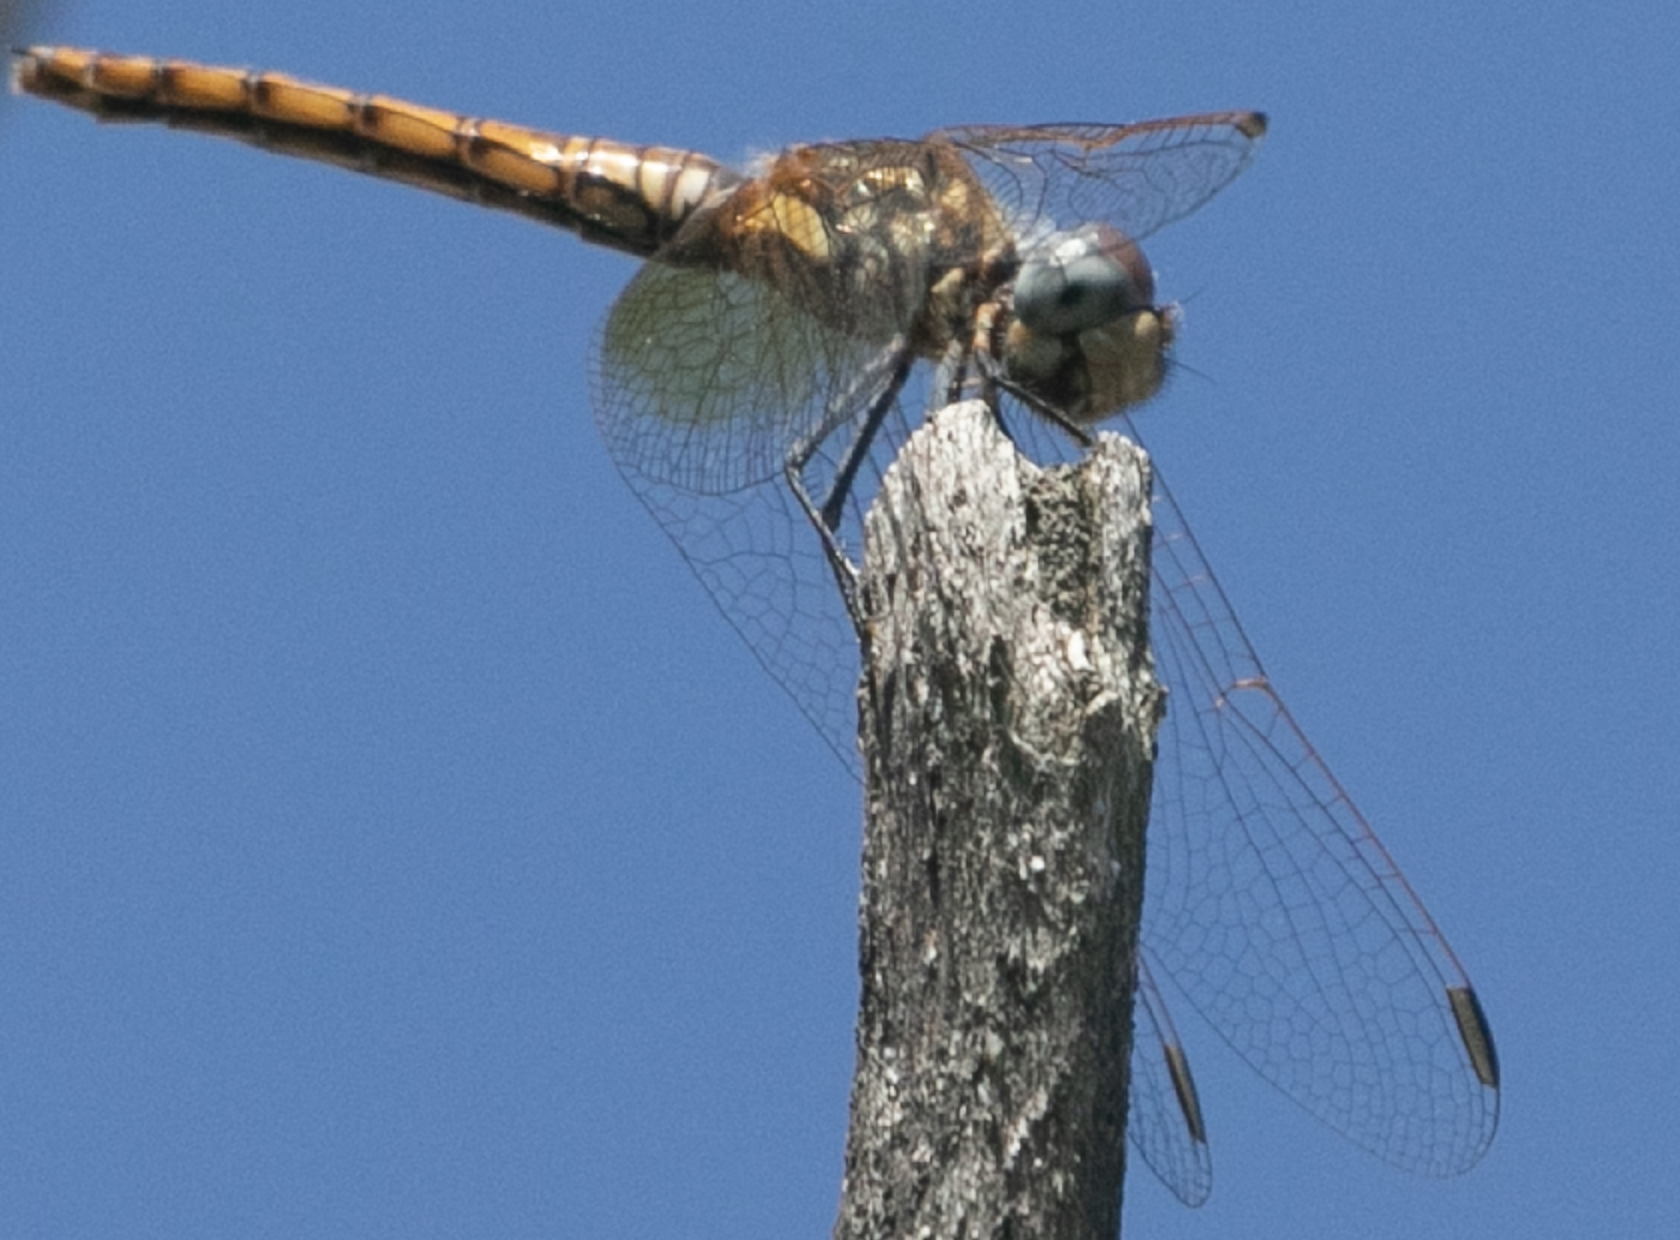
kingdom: Animalia
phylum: Arthropoda
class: Insecta
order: Odonata
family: Libellulidae
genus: Trithemis
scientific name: Trithemis annulata
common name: Violet dropwing
